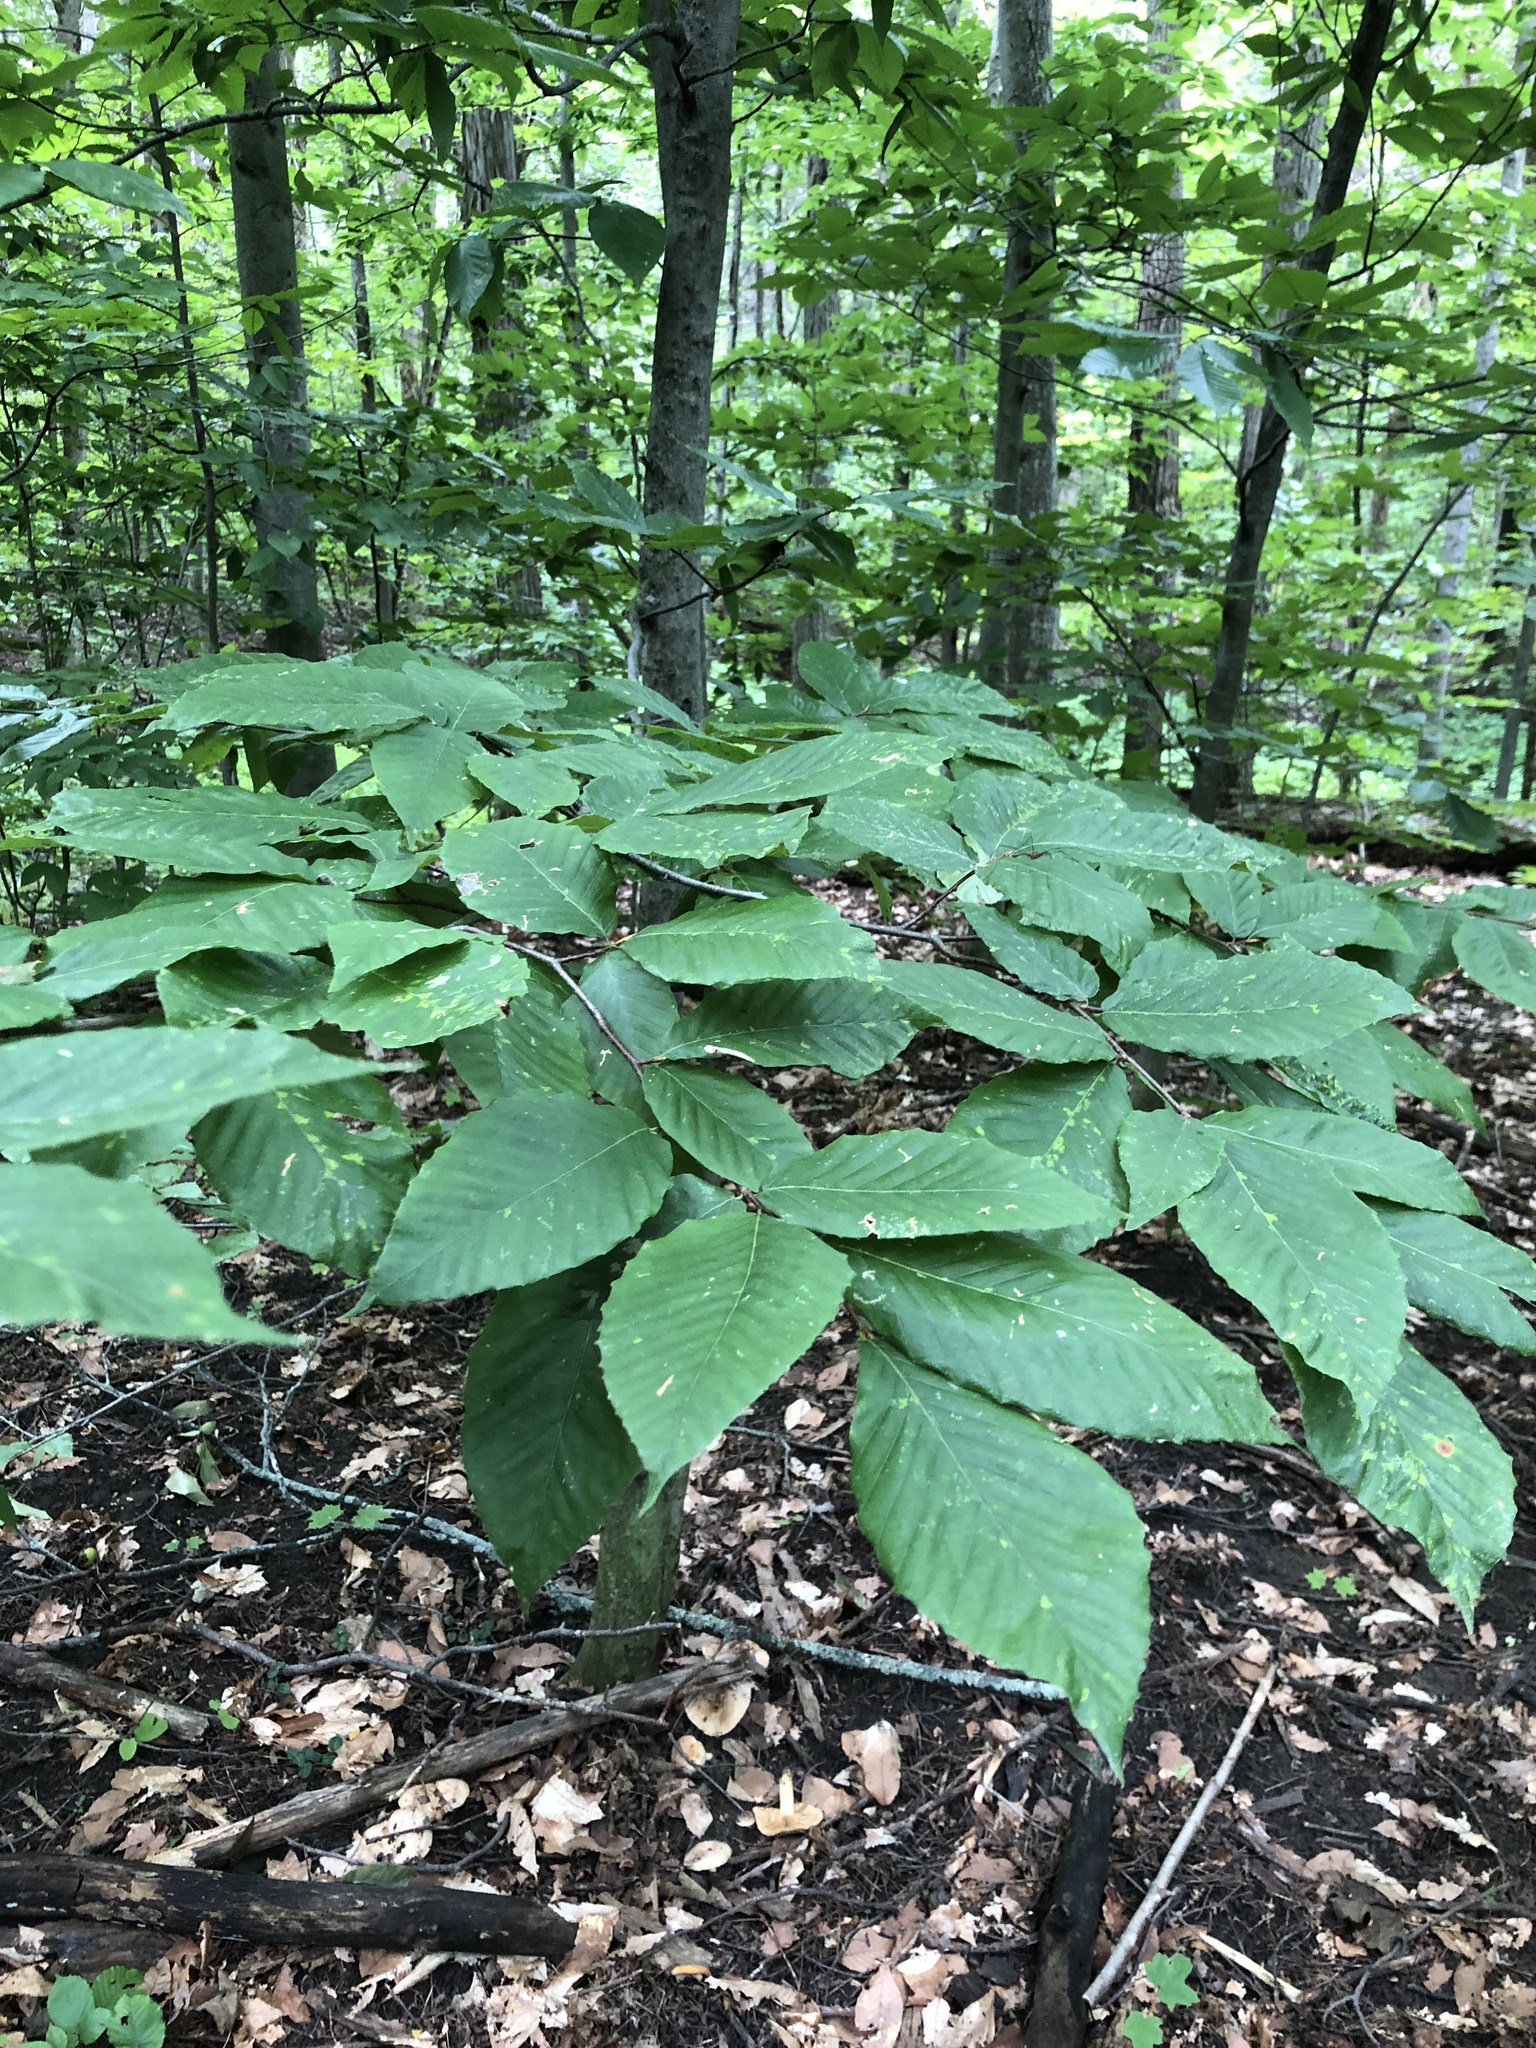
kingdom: Plantae
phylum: Tracheophyta
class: Magnoliopsida
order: Fagales
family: Fagaceae
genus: Fagus
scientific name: Fagus grandifolia
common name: American beech
